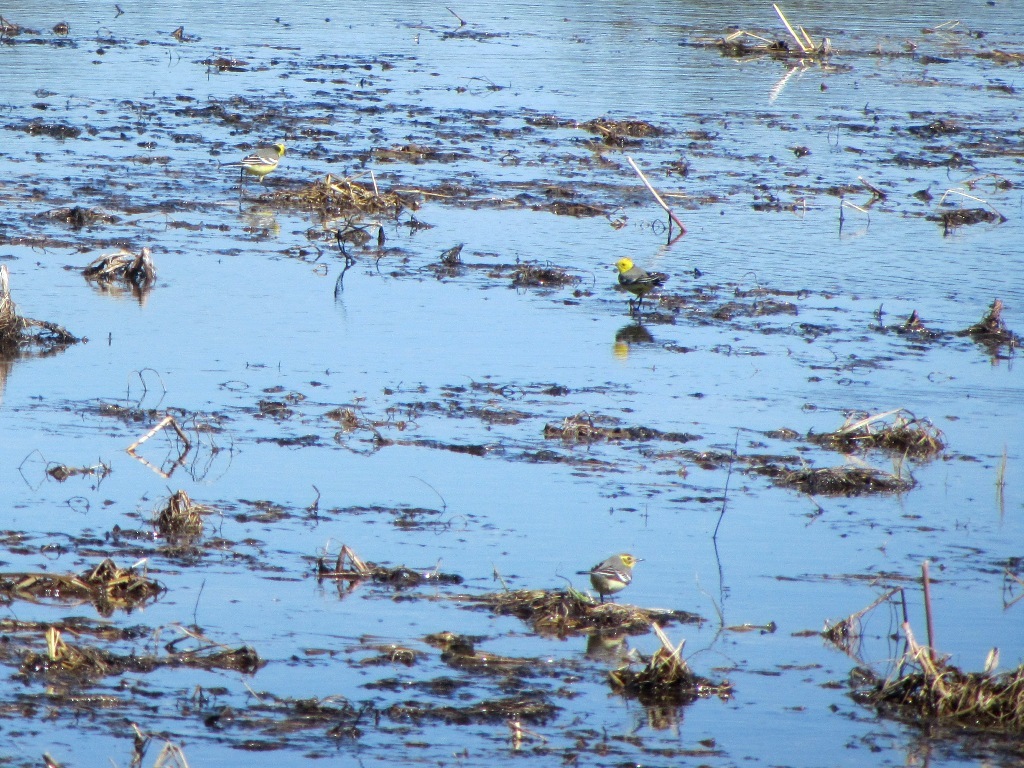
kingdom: Animalia
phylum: Chordata
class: Aves
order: Passeriformes
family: Motacillidae
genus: Motacilla
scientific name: Motacilla citreola
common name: Citrine wagtail
